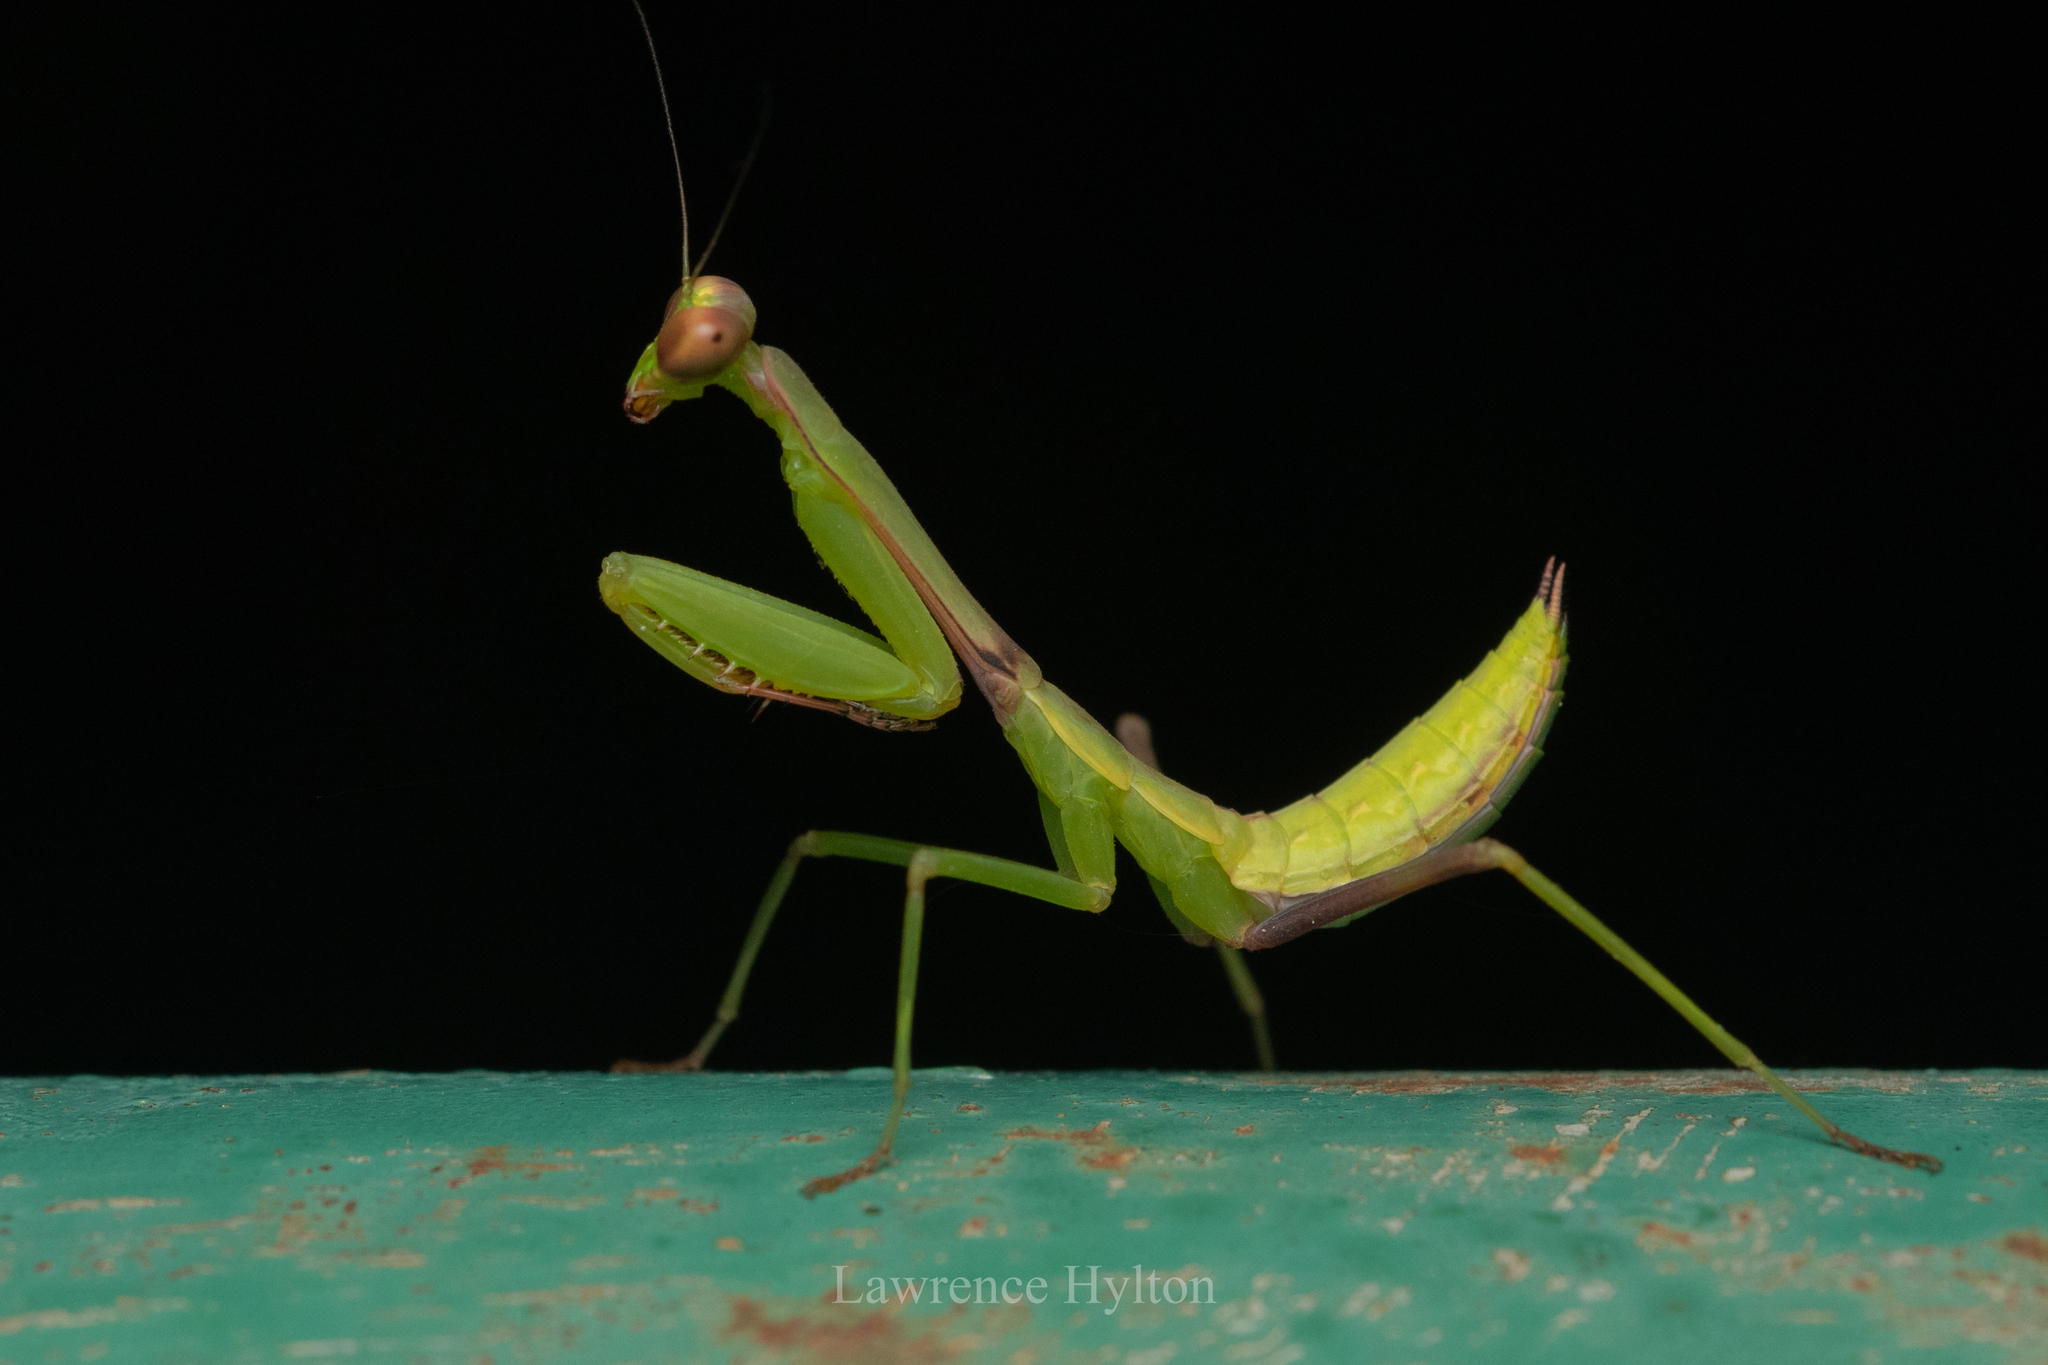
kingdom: Animalia
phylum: Arthropoda
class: Insecta
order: Mantodea
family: Mantidae
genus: Titanodula
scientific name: Titanodula formosana
